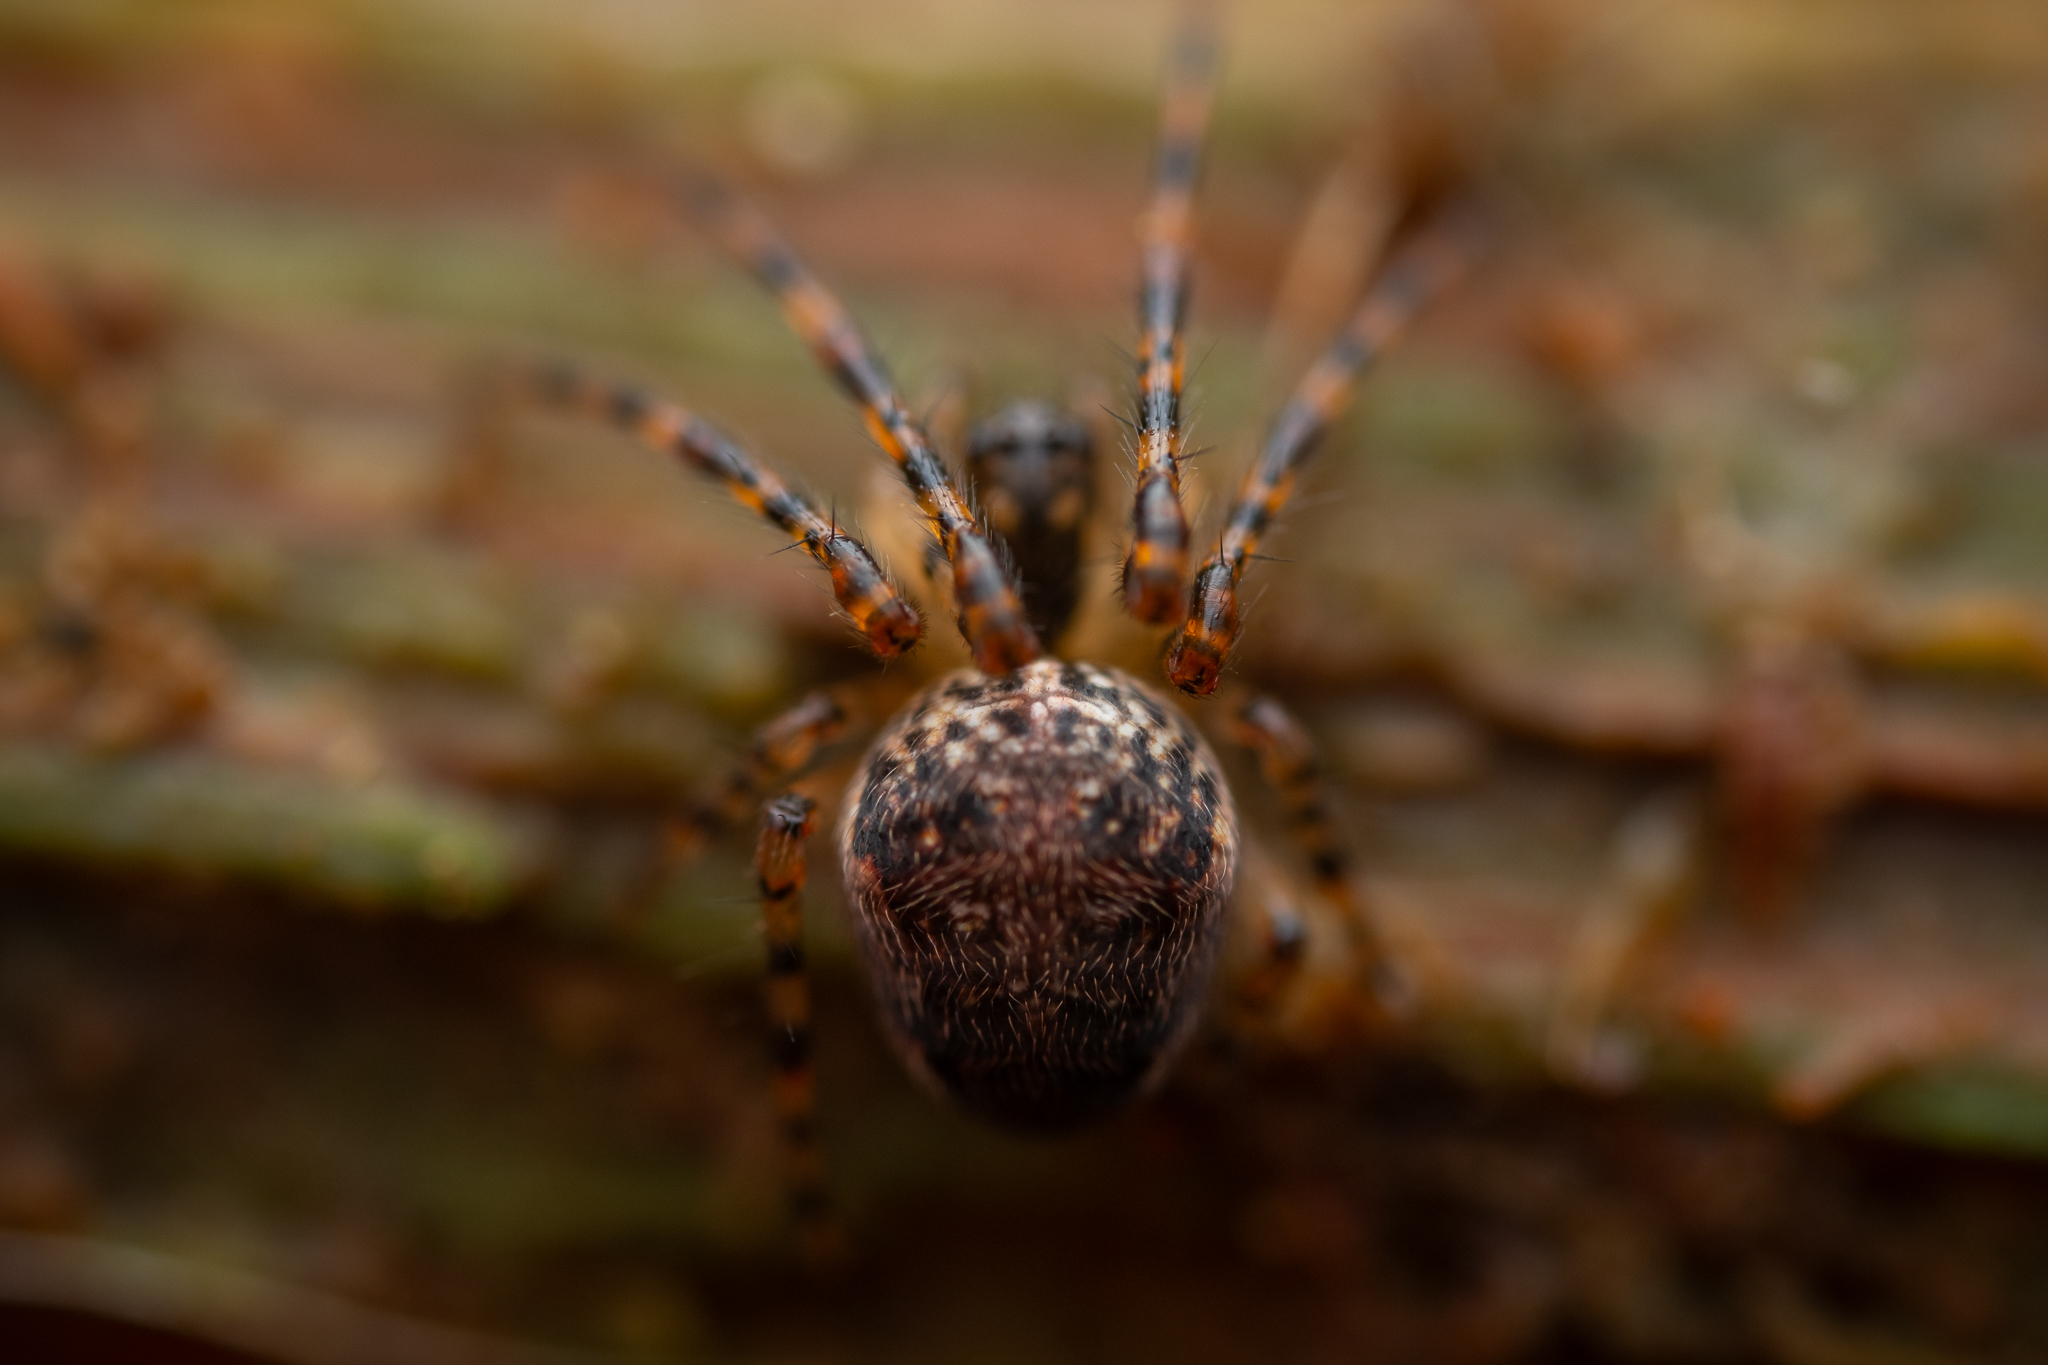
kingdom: Animalia
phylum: Arthropoda
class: Arachnida
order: Araneae
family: Tetragnathidae
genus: Metellina
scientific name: Metellina merianae
